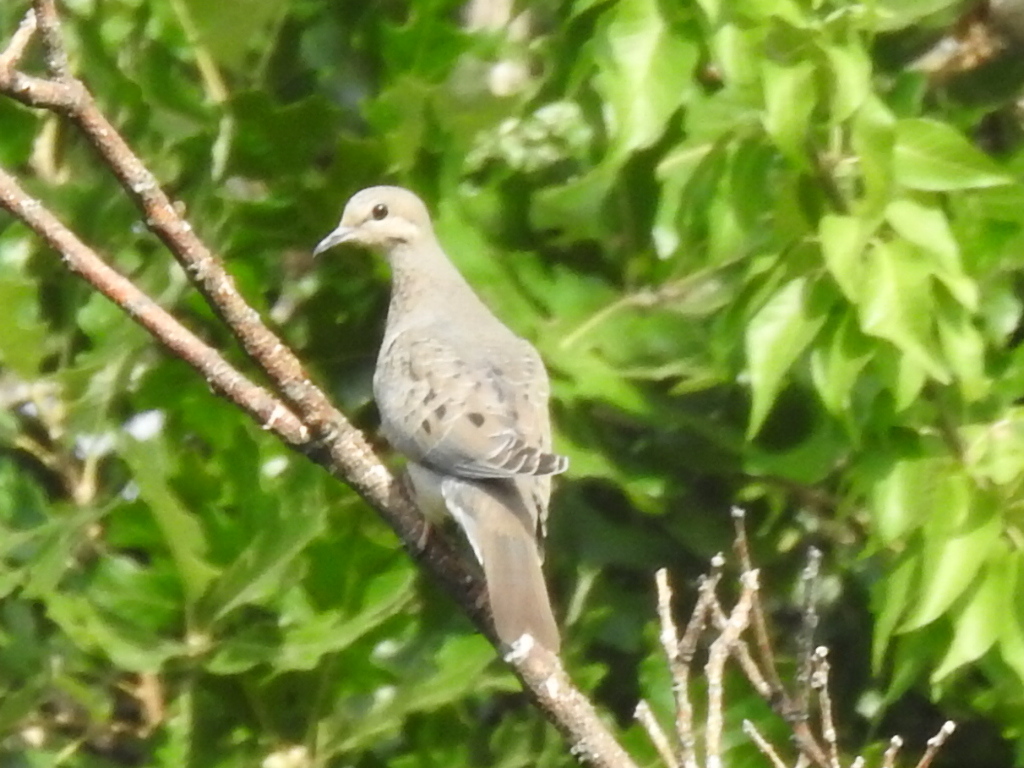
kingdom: Animalia
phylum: Chordata
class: Aves
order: Columbiformes
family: Columbidae
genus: Zenaida
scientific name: Zenaida macroura
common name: Mourning dove
